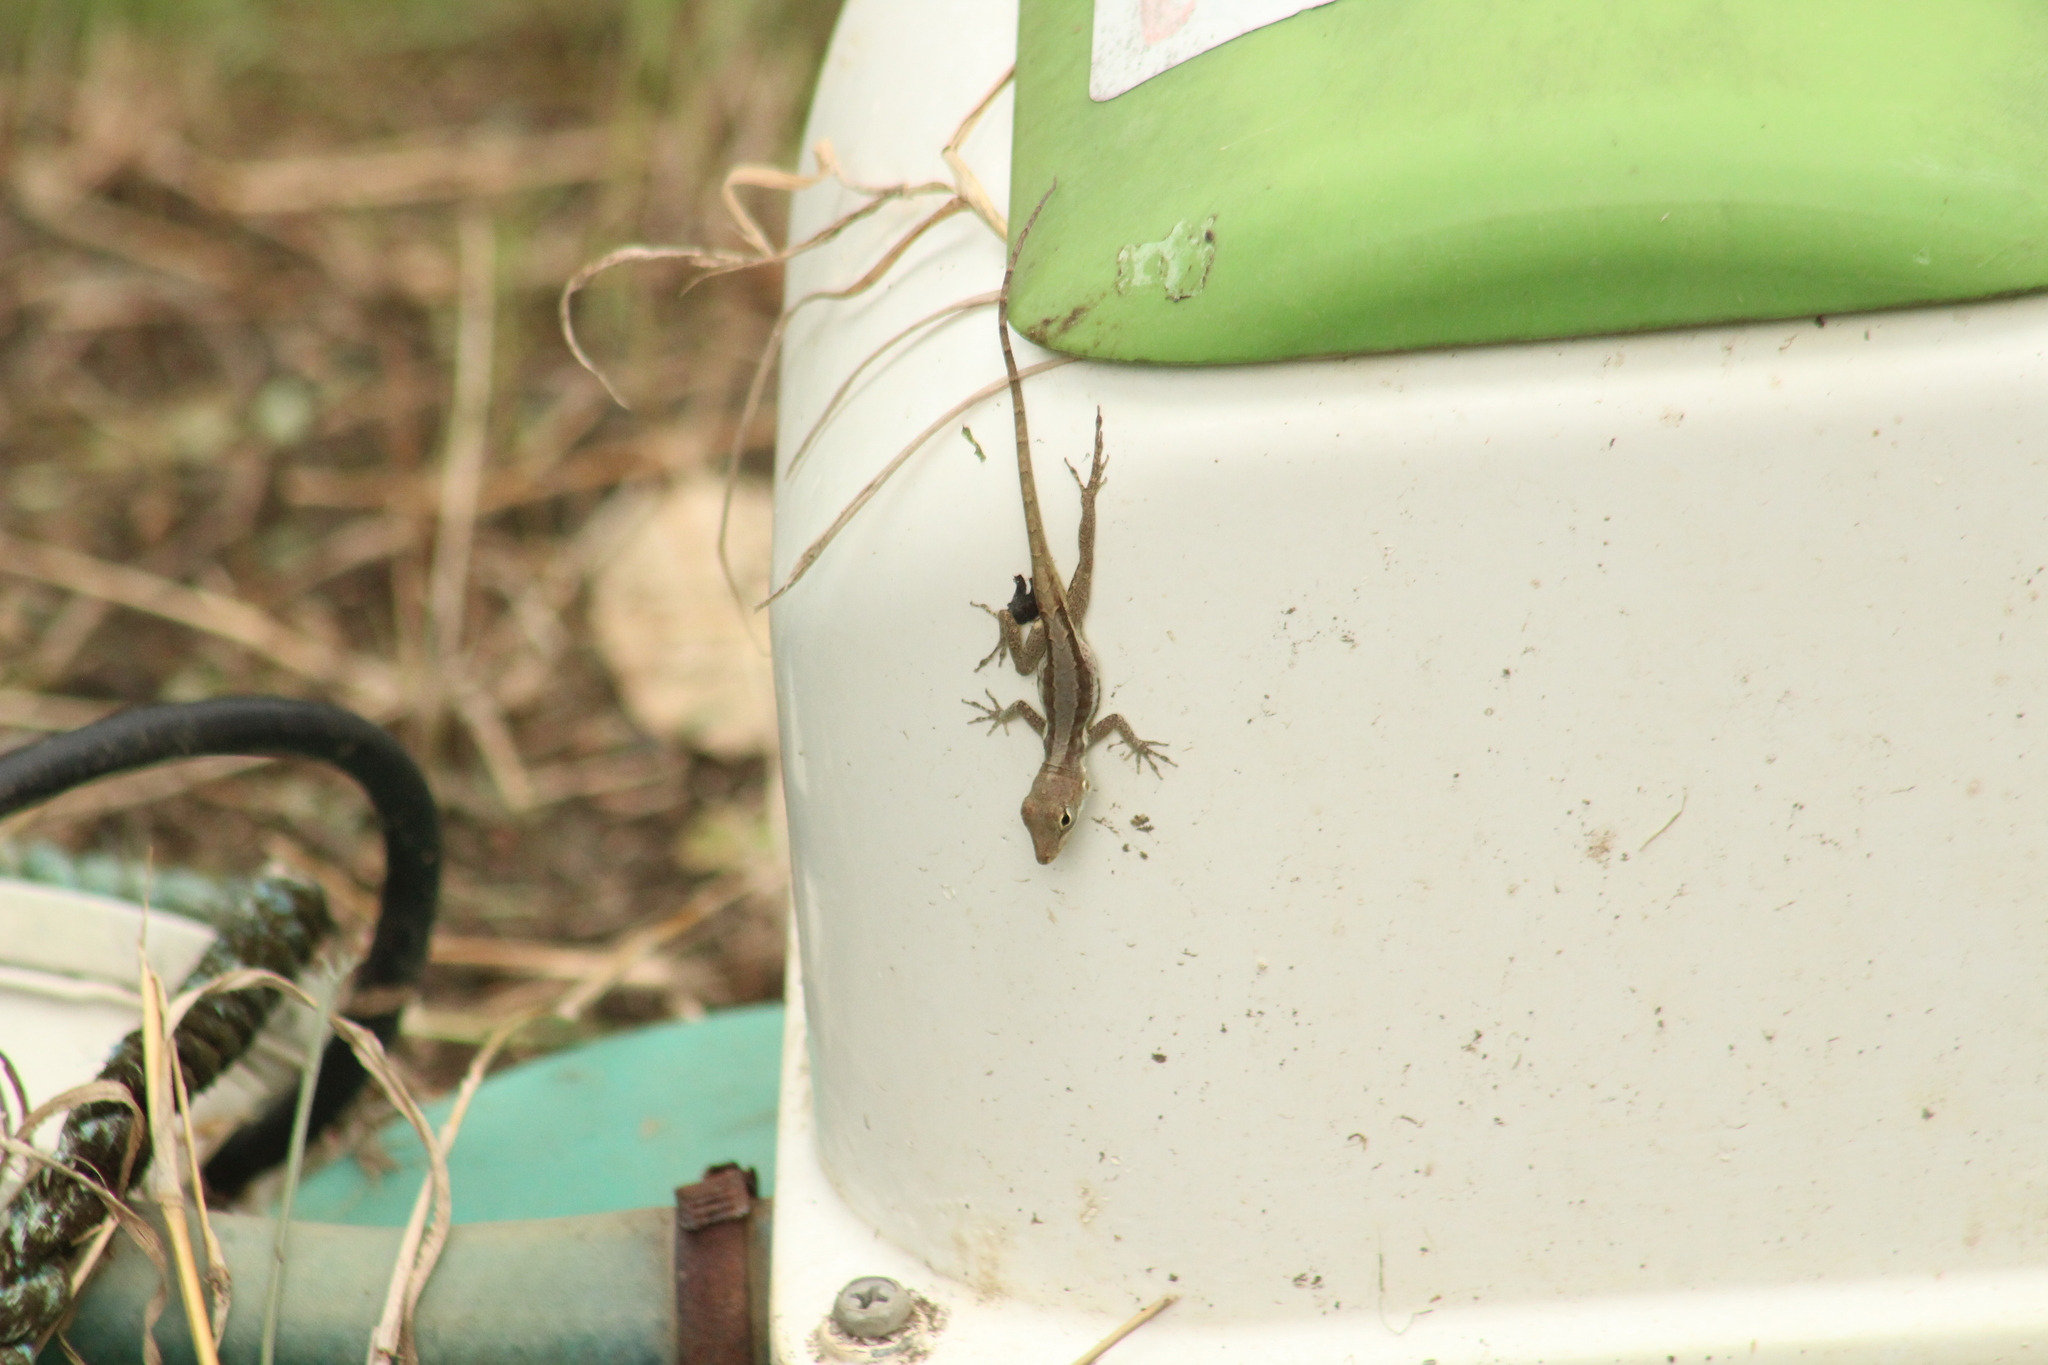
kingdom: Animalia
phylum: Chordata
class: Squamata
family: Dactyloidae
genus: Anolis
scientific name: Anolis gingivinus
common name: Anguilla anole
